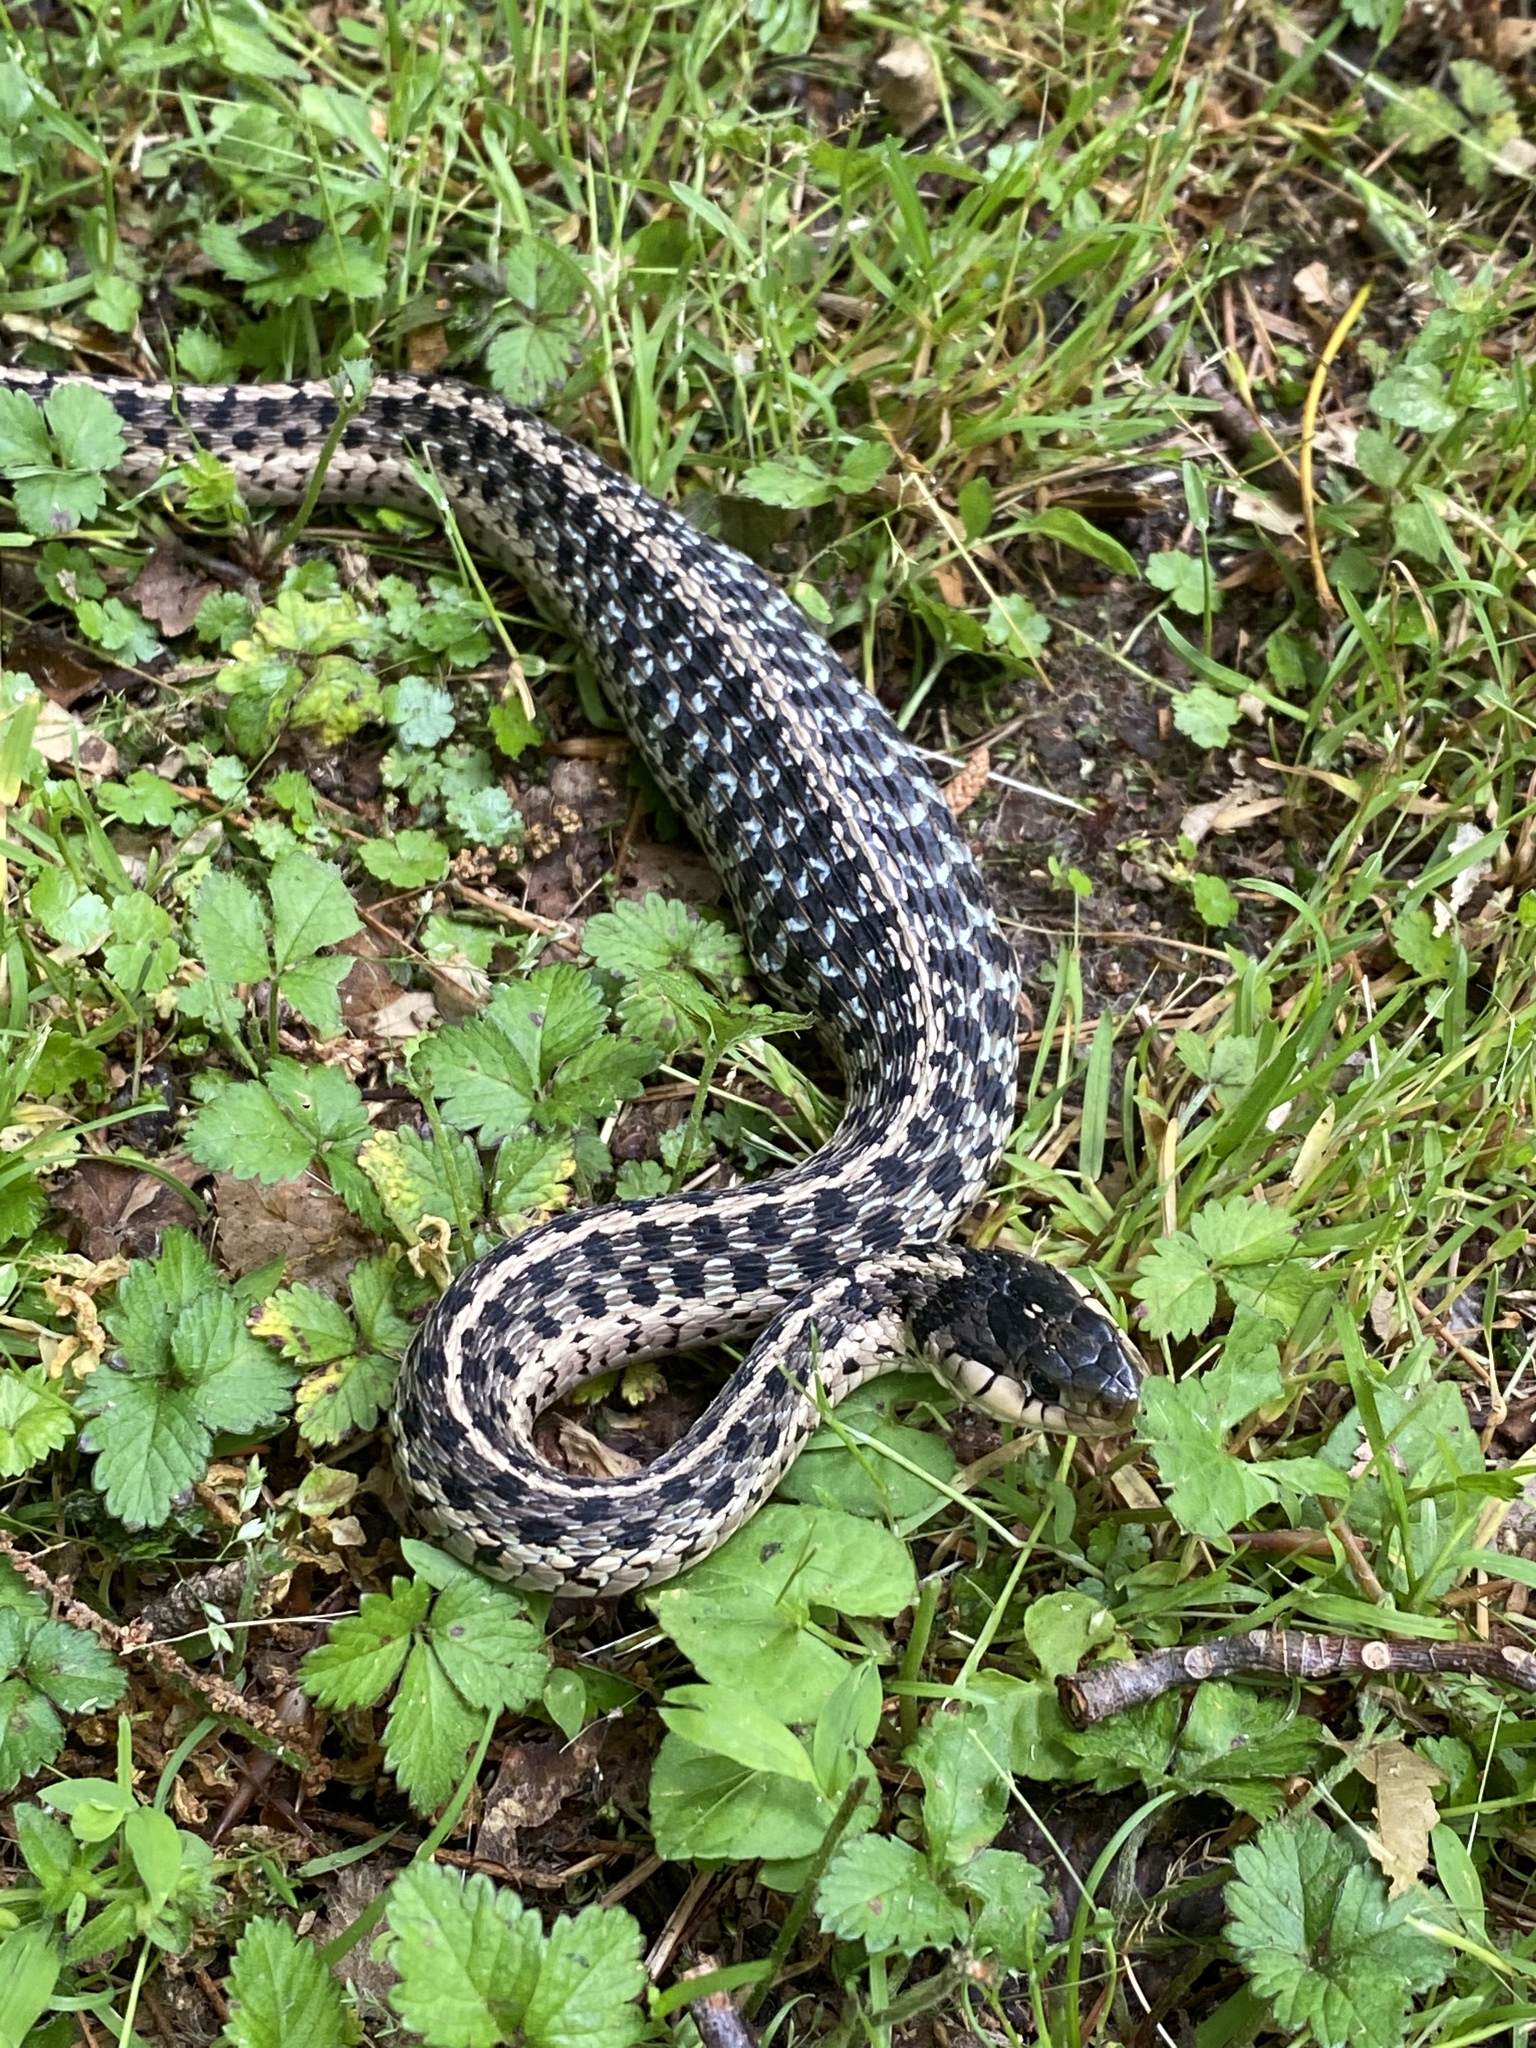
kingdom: Animalia
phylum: Chordata
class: Squamata
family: Colubridae
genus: Thamnophis
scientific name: Thamnophis sirtalis
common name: Common garter snake
